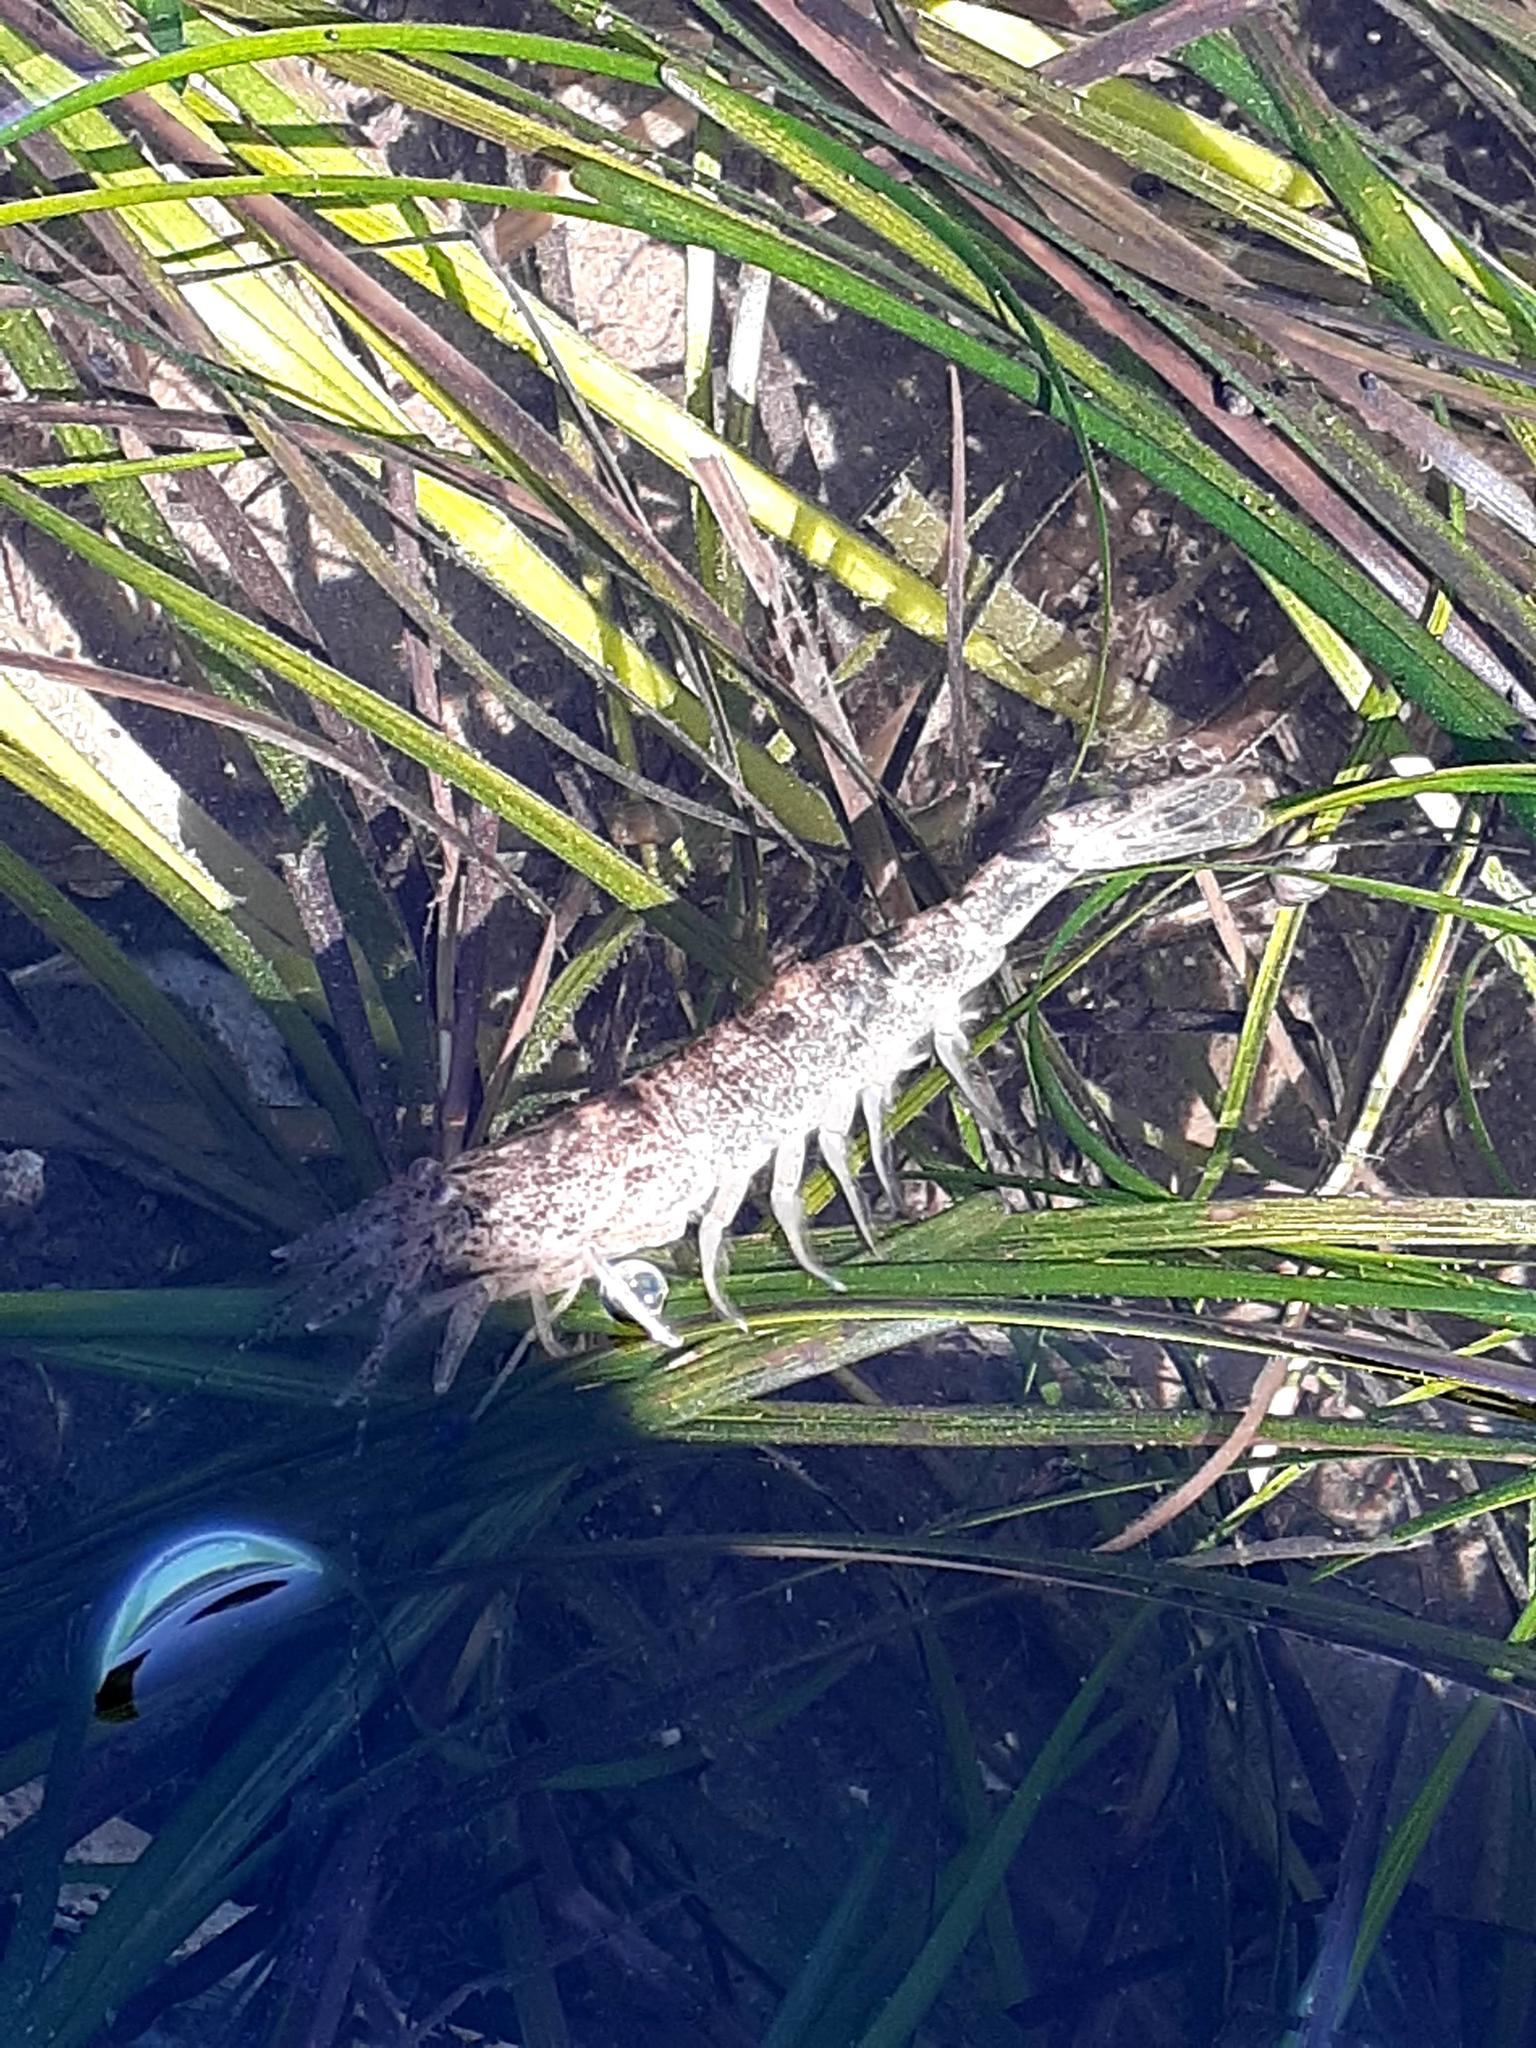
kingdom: Animalia
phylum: Arthropoda
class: Malacostraca
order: Decapoda
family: Crangonidae
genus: Crangon
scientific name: Crangon septemspinosa
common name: Bail shrimp
